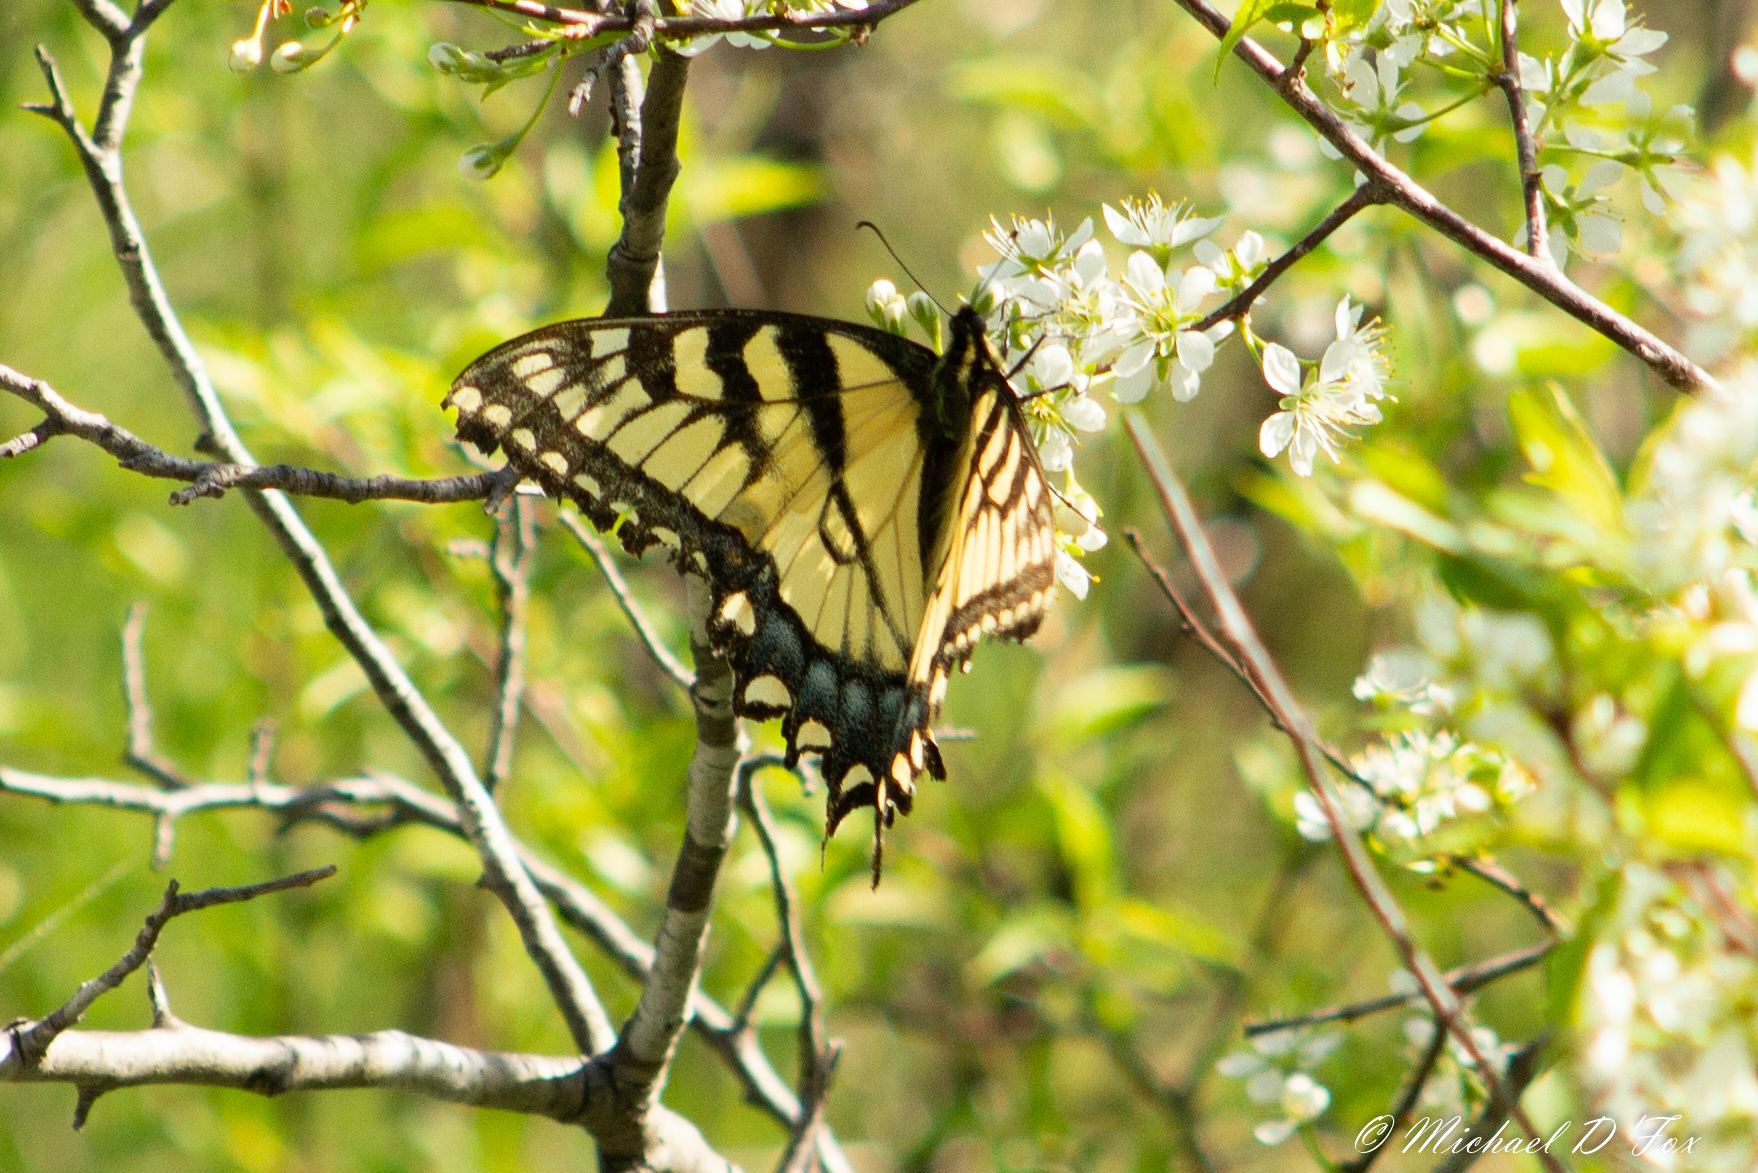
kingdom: Animalia
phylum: Arthropoda
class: Insecta
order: Lepidoptera
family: Papilionidae
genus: Papilio
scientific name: Papilio glaucus
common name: Tiger swallowtail
